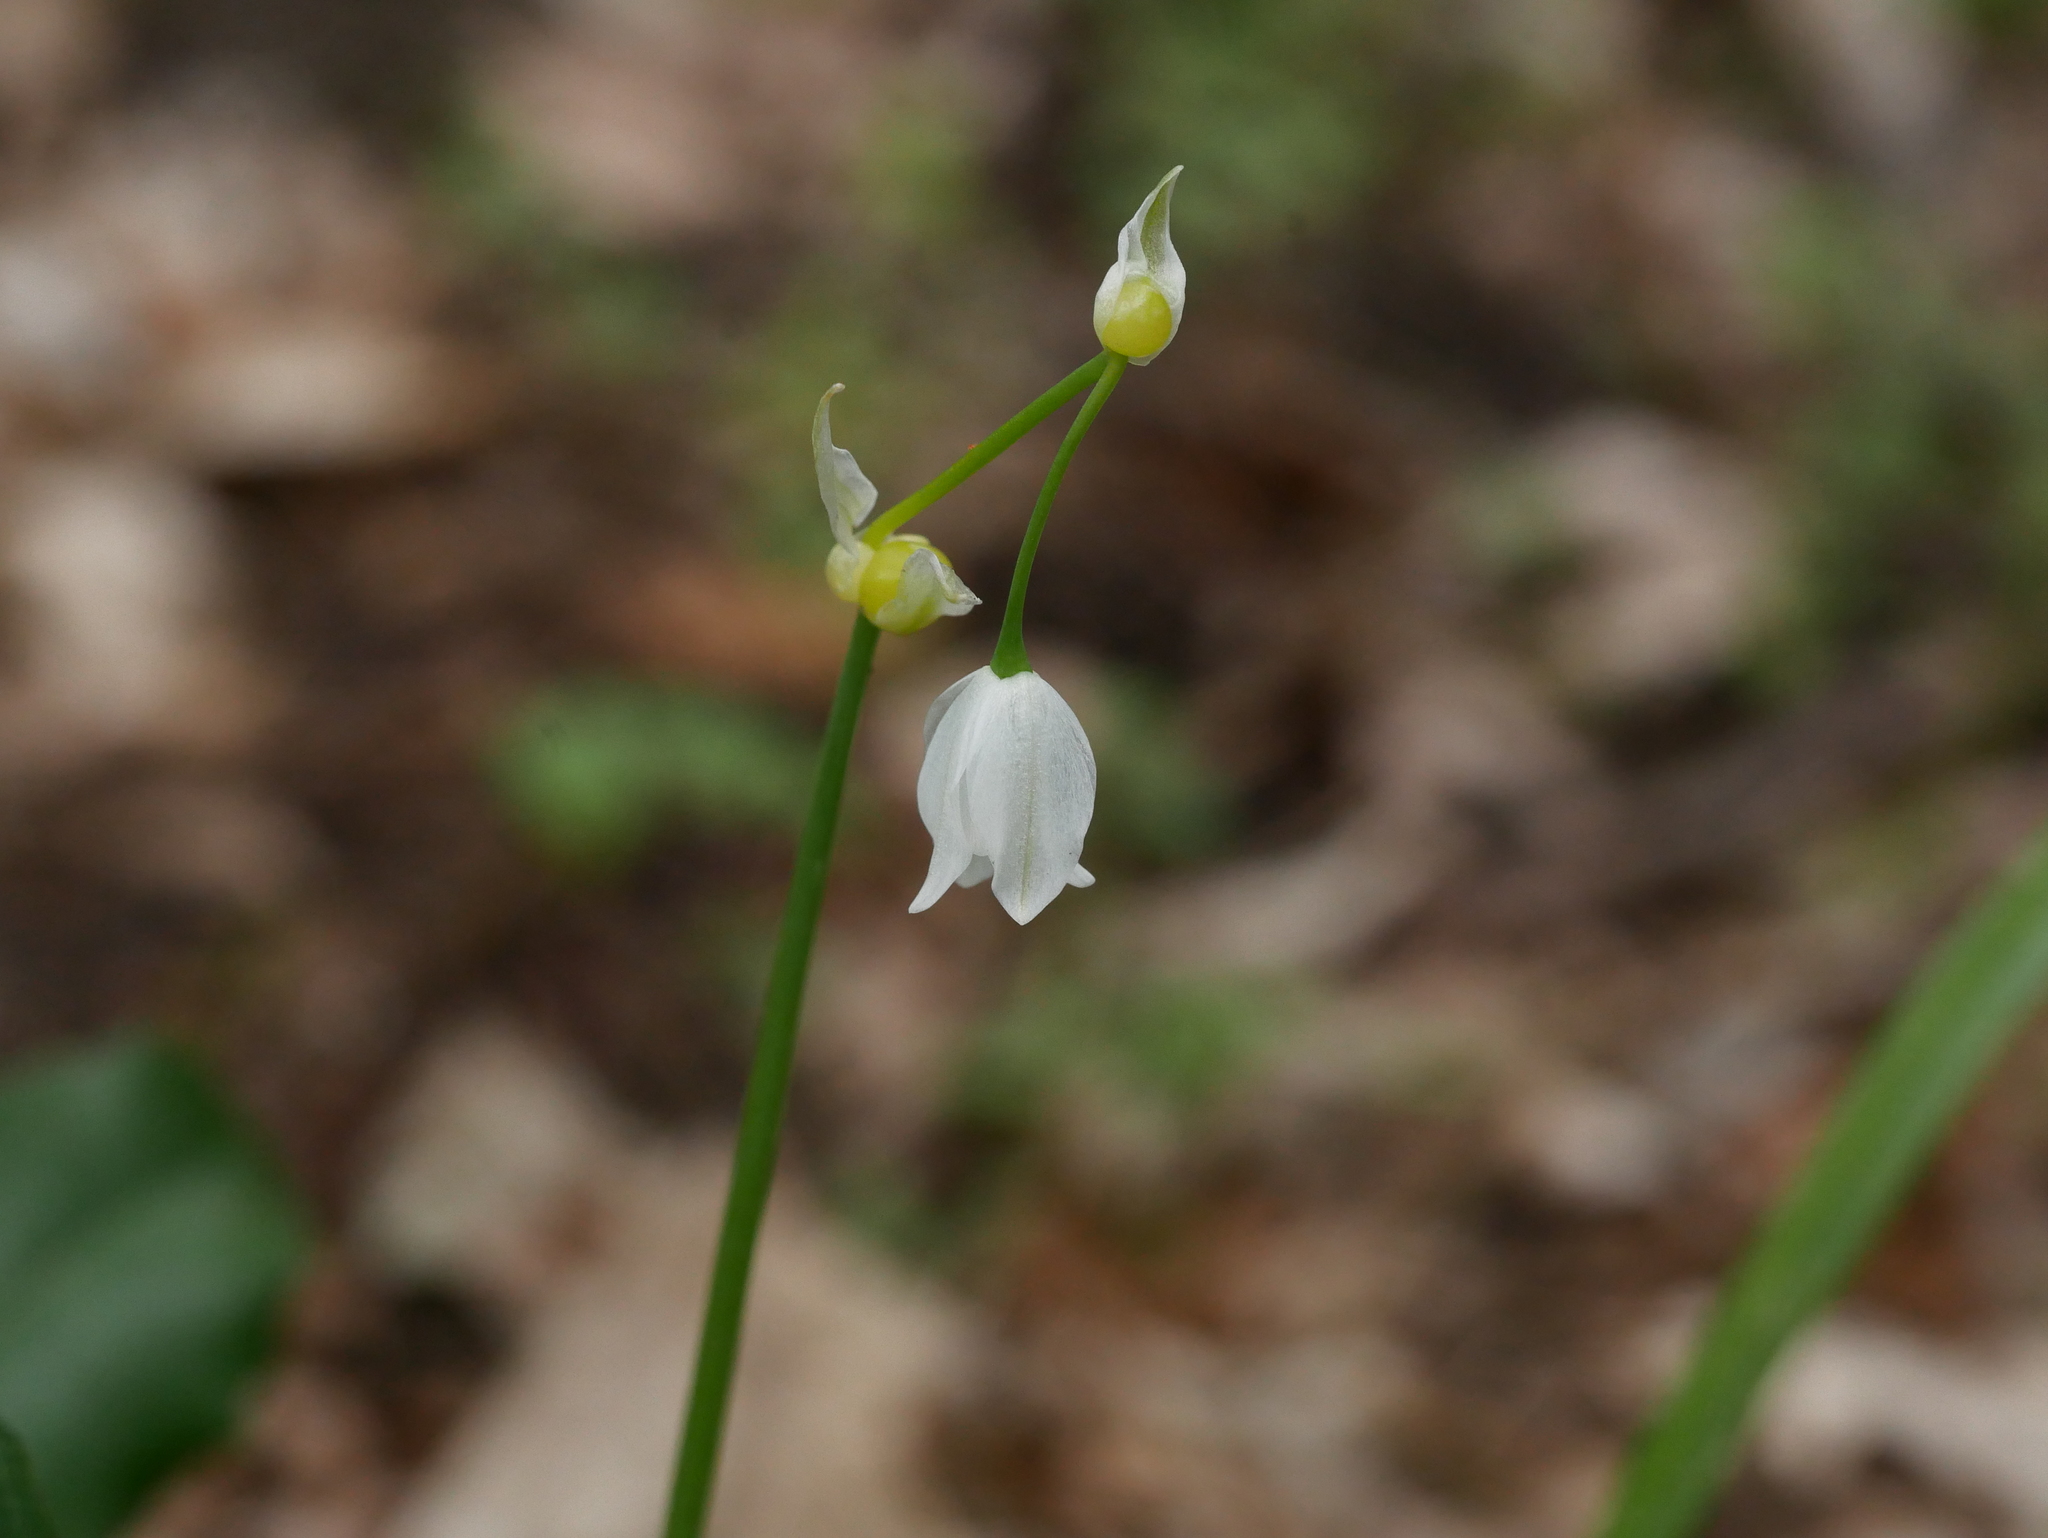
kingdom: Plantae
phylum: Tracheophyta
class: Liliopsida
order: Asparagales
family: Amaryllidaceae
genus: Allium
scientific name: Allium paradoxum
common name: Few-flowered garlic
